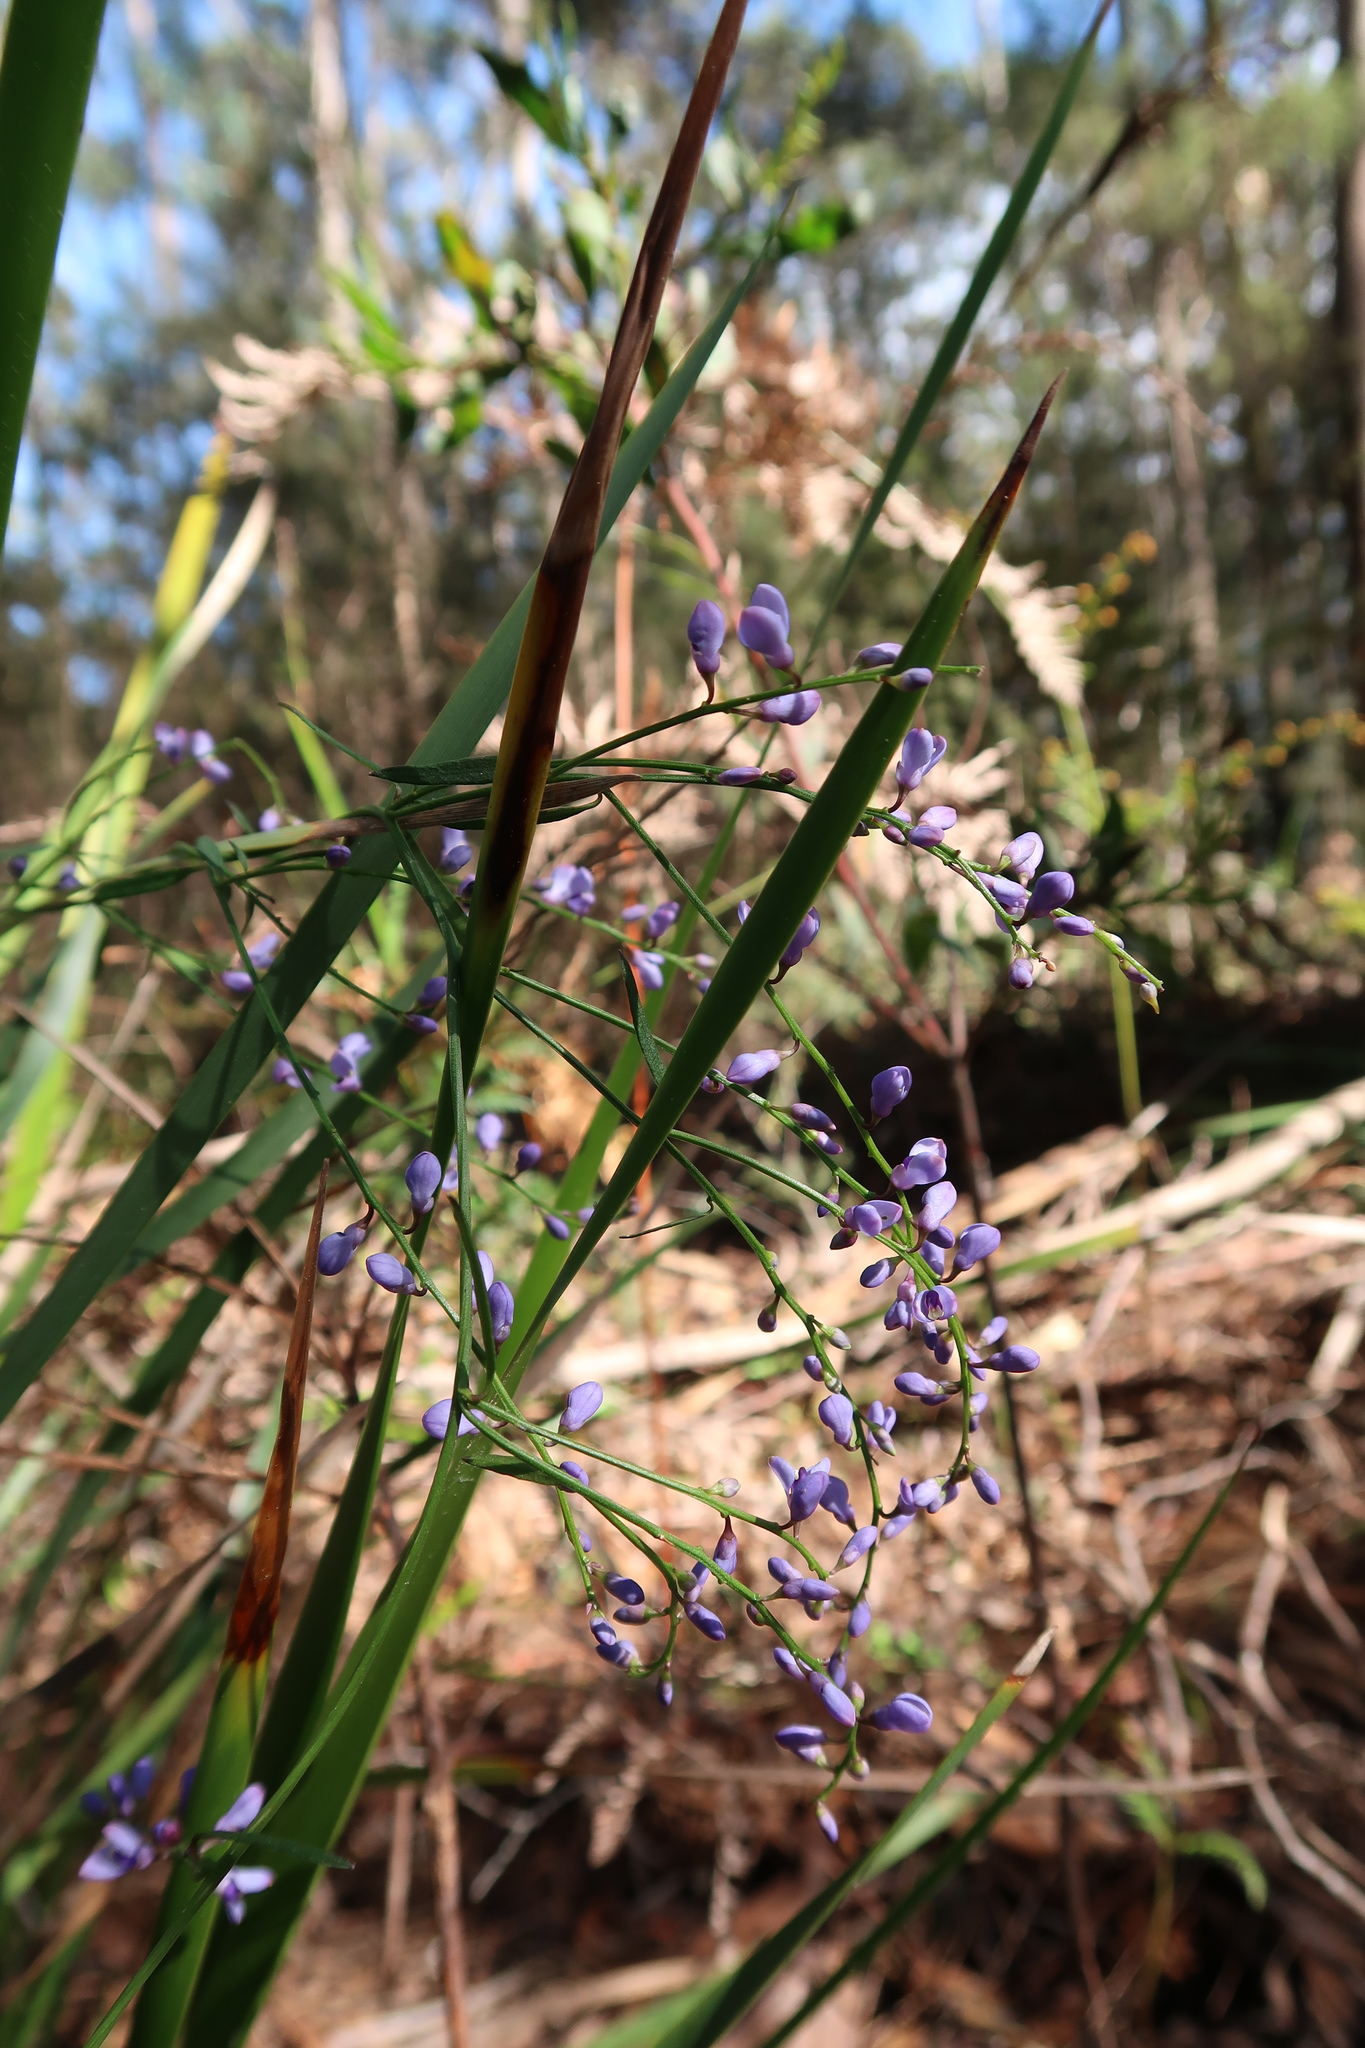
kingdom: Plantae
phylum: Tracheophyta
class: Magnoliopsida
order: Fabales
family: Polygalaceae
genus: Comesperma
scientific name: Comesperma volubile
